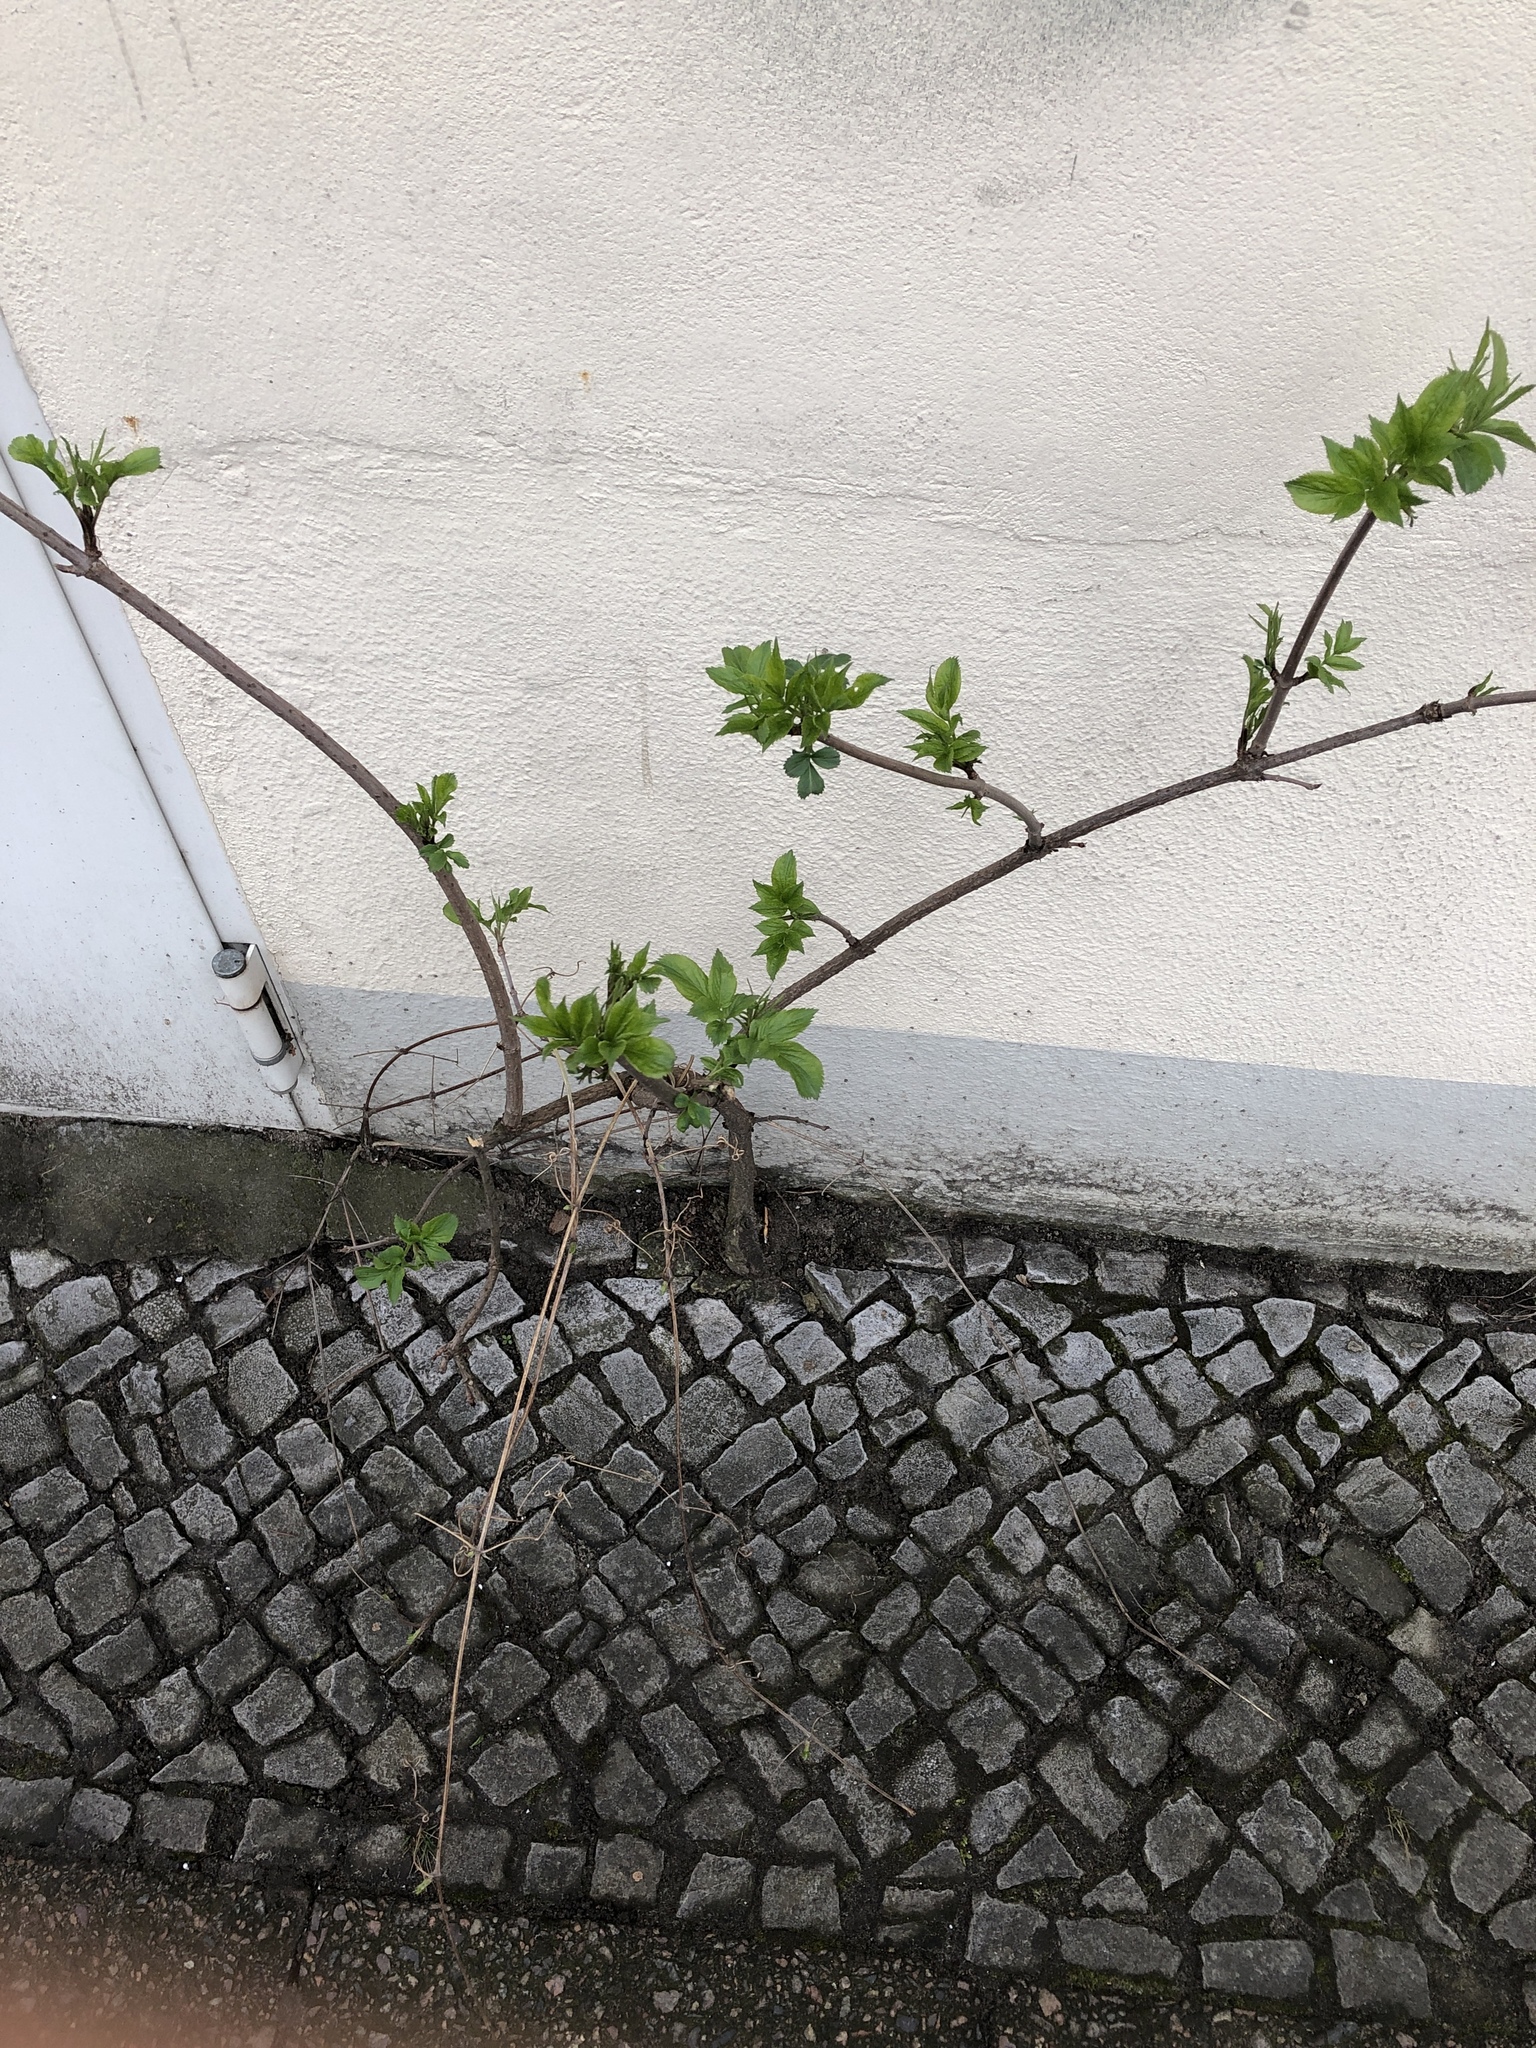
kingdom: Plantae
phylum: Tracheophyta
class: Magnoliopsida
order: Dipsacales
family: Viburnaceae
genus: Sambucus
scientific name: Sambucus nigra
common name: Elder
